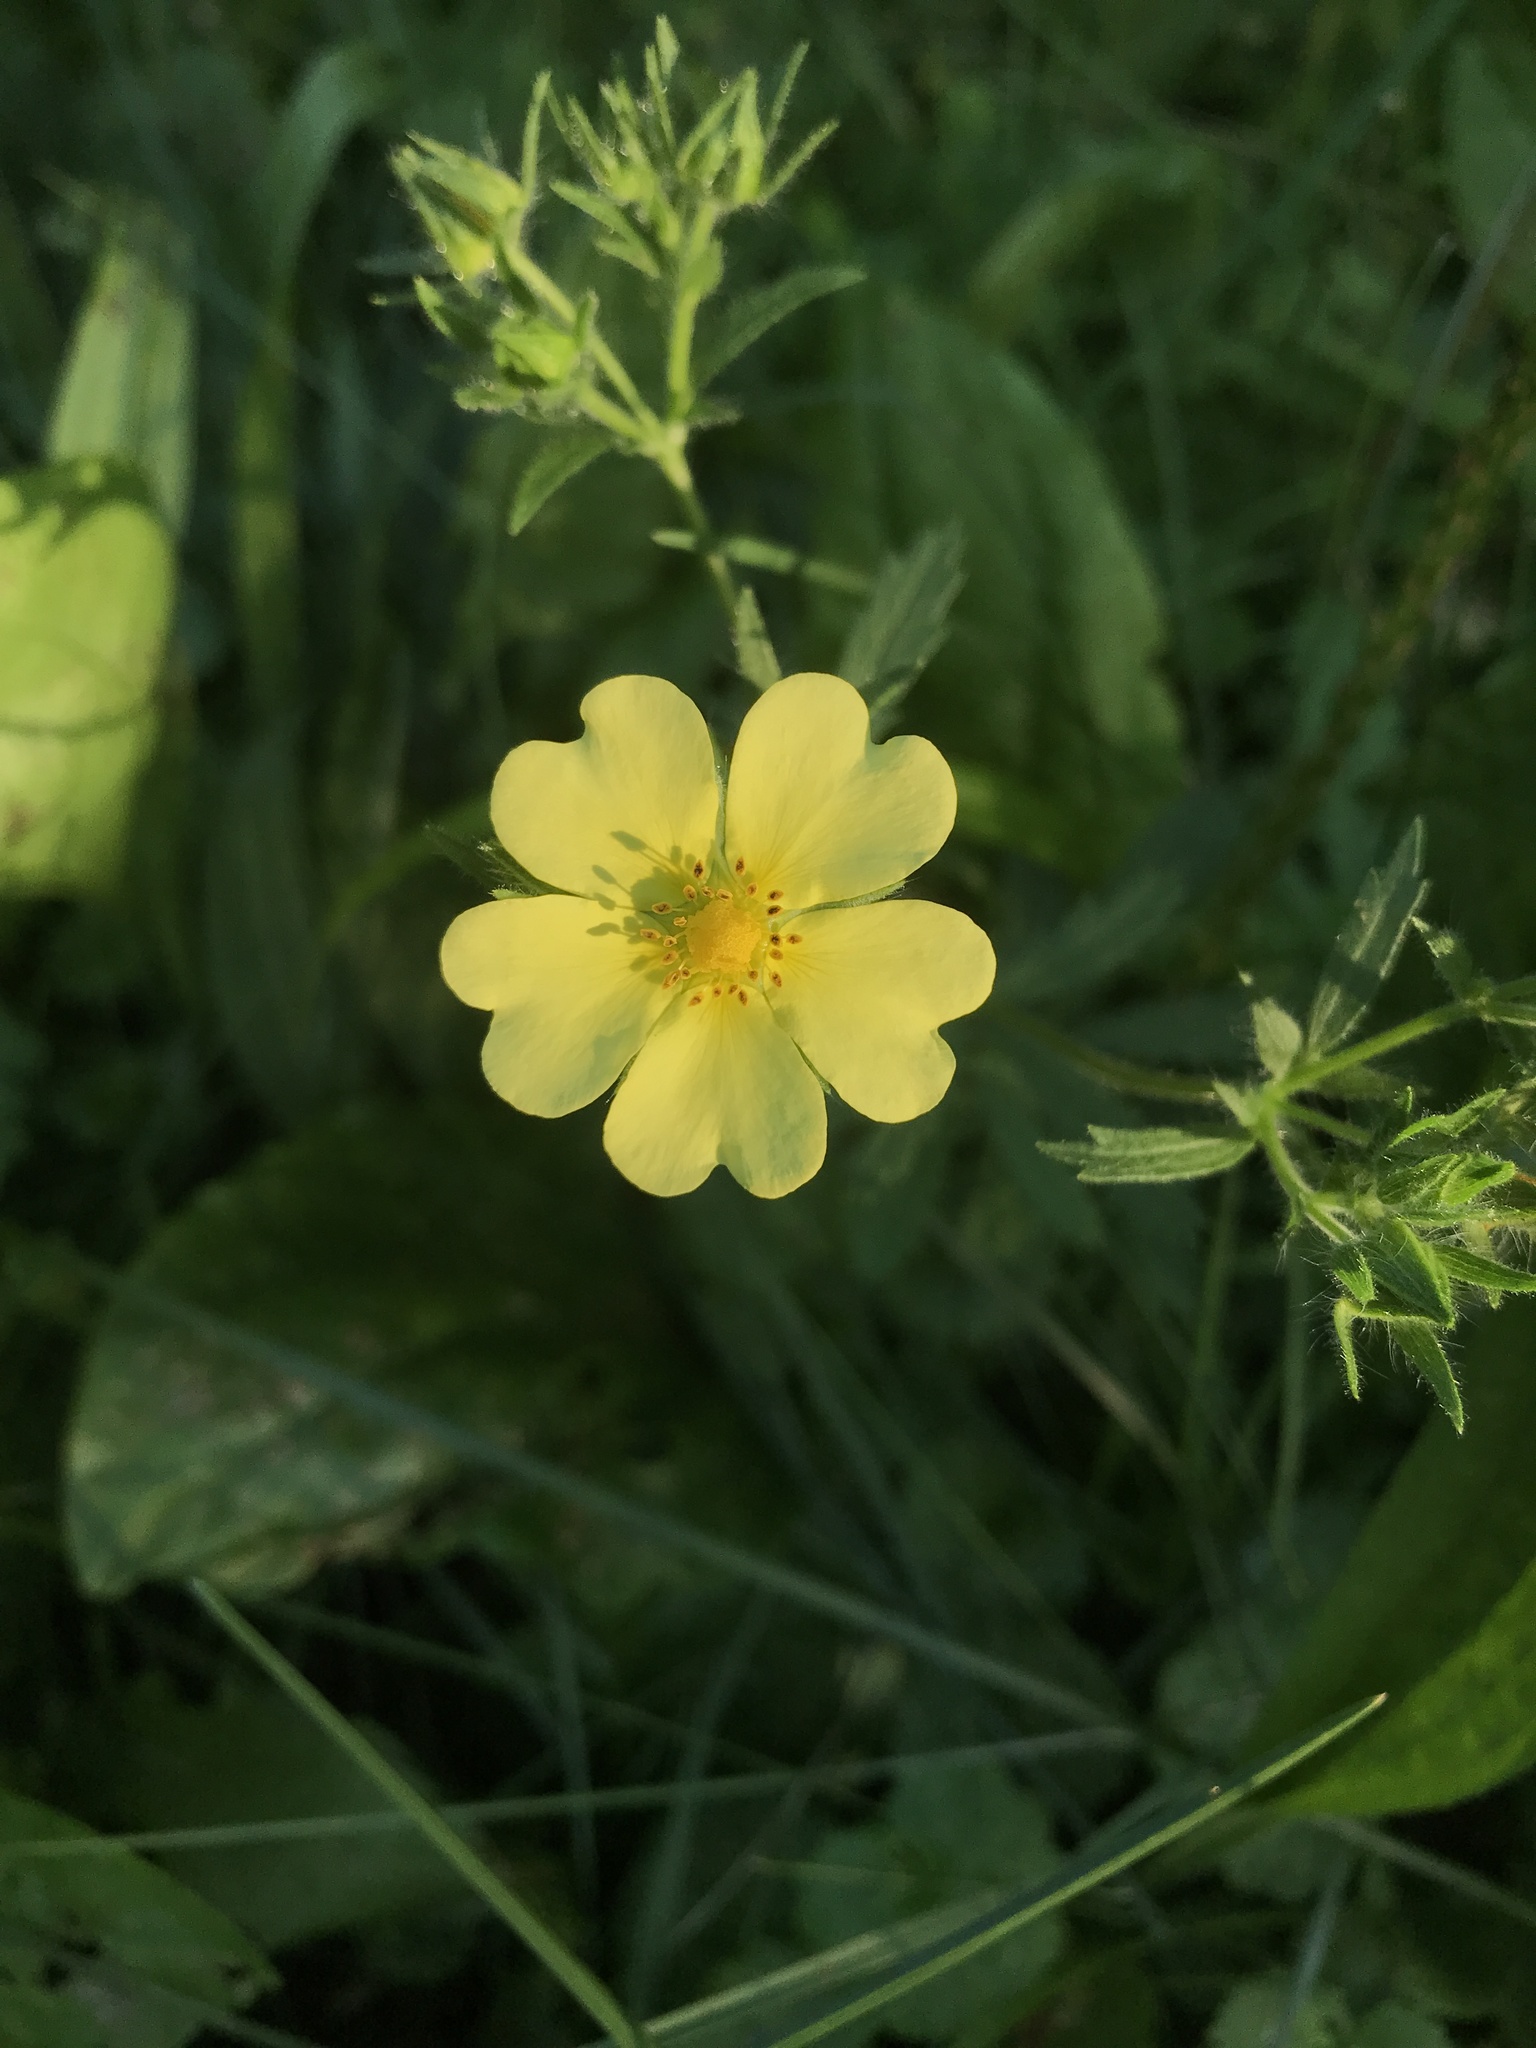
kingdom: Plantae
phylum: Tracheophyta
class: Magnoliopsida
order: Rosales
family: Rosaceae
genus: Potentilla
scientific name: Potentilla recta
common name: Sulphur cinquefoil
